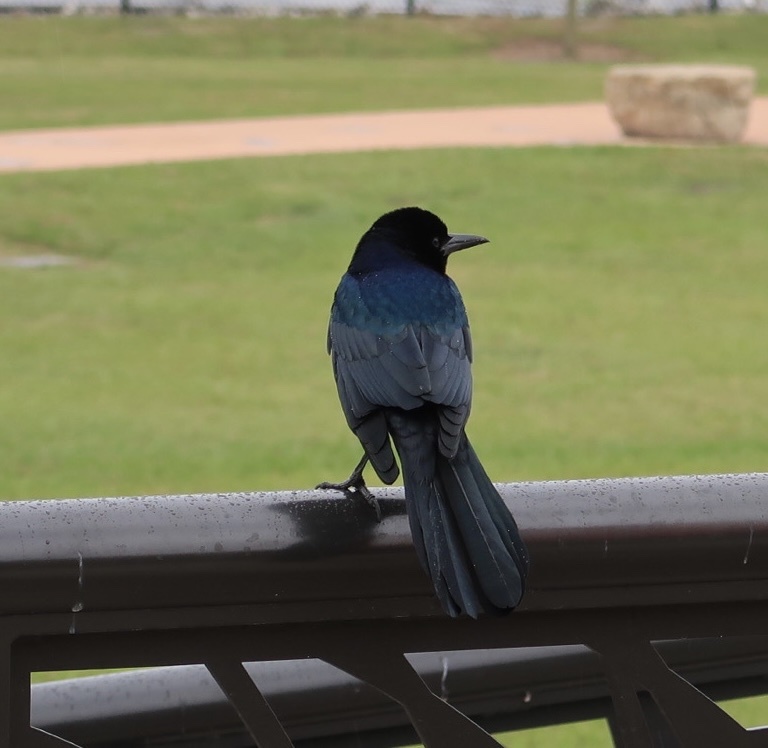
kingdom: Animalia
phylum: Chordata
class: Aves
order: Passeriformes
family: Icteridae
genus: Quiscalus
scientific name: Quiscalus major
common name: Boat-tailed grackle
